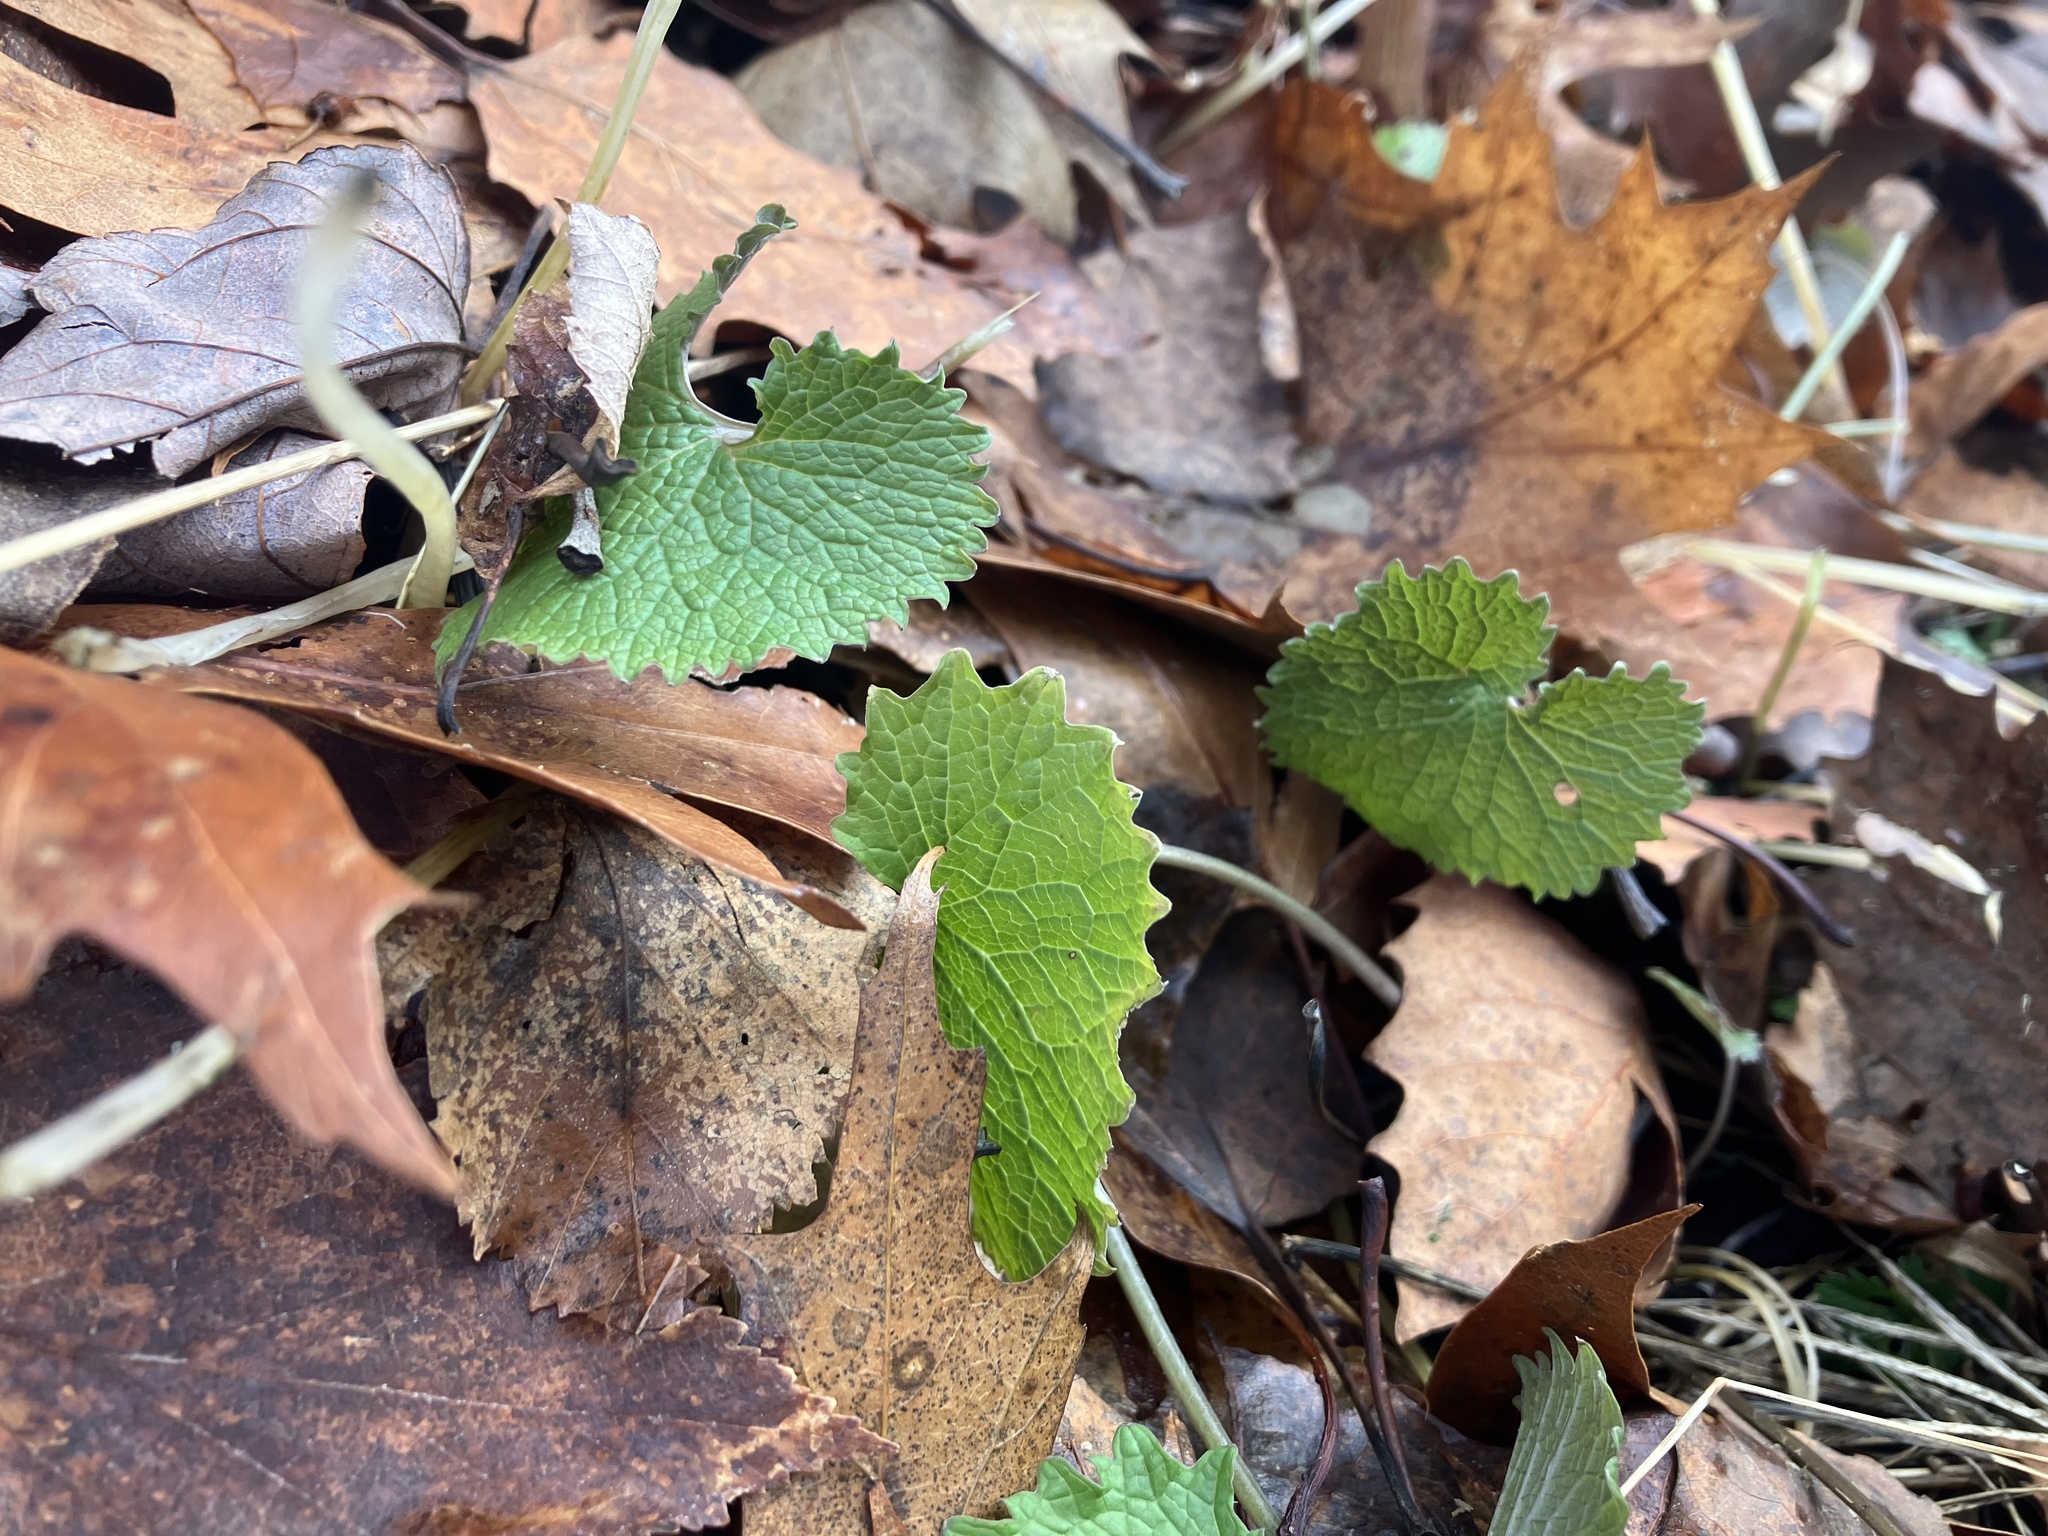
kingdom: Plantae
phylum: Tracheophyta
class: Magnoliopsida
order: Brassicales
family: Brassicaceae
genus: Alliaria
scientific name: Alliaria petiolata
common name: Garlic mustard
